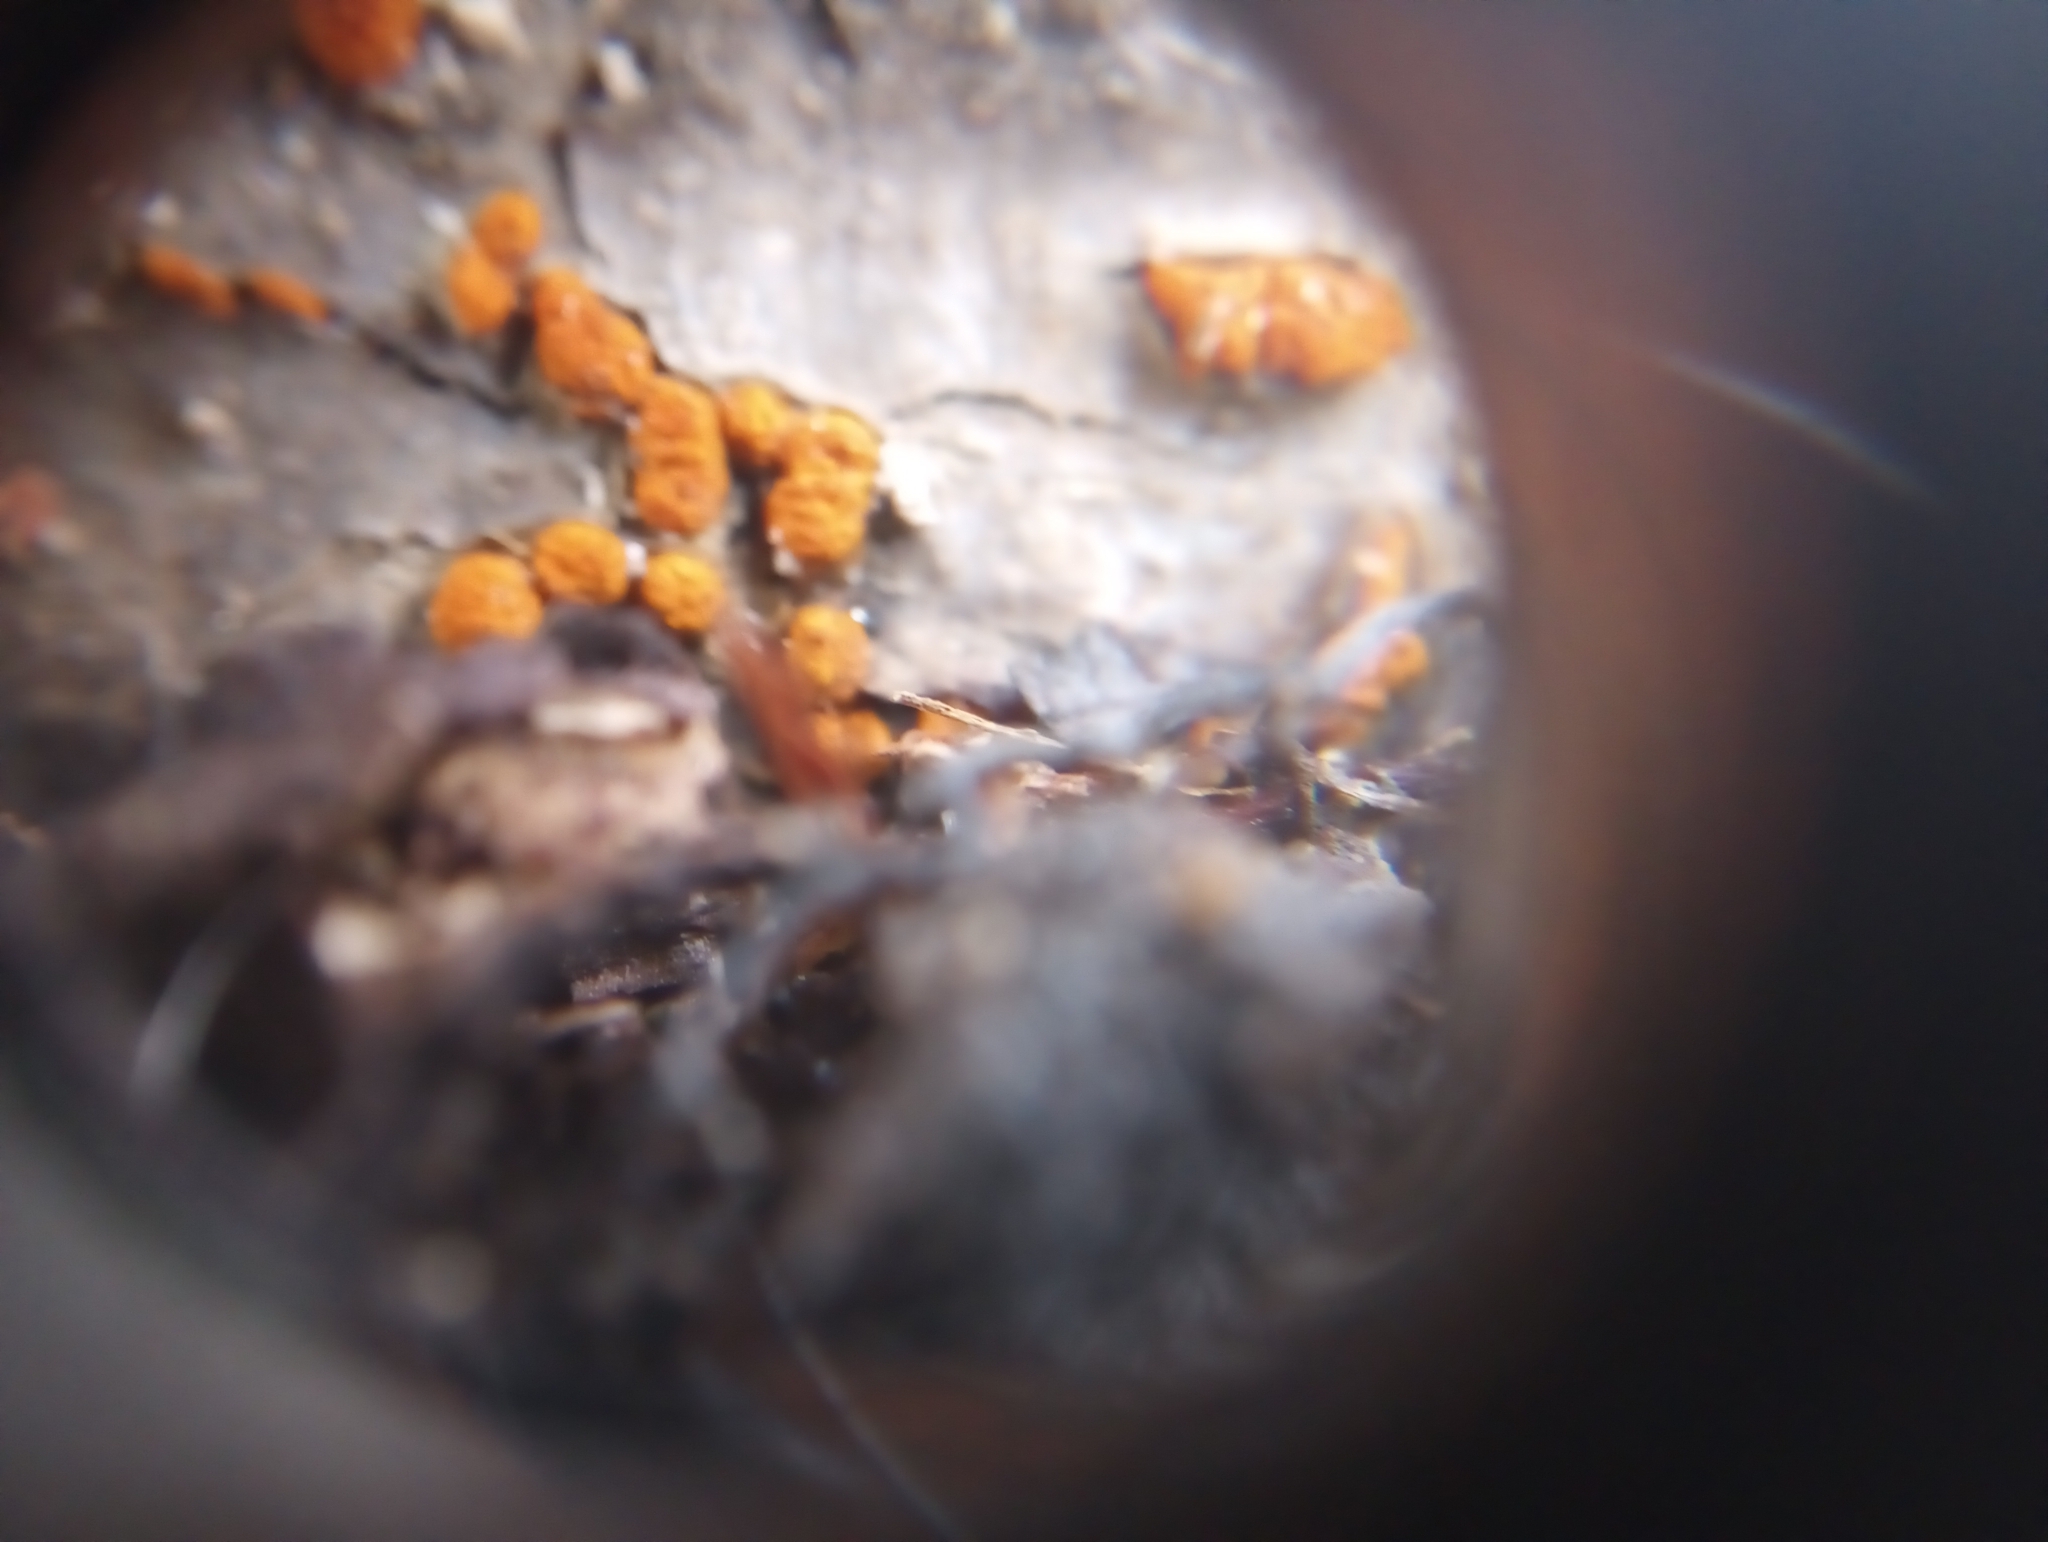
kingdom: Fungi
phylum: Ascomycota
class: Sordariomycetes
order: Diaporthales
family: Cryphonectriaceae
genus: Amphilogia
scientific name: Amphilogia gyrosa
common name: Orange hobnail canker
